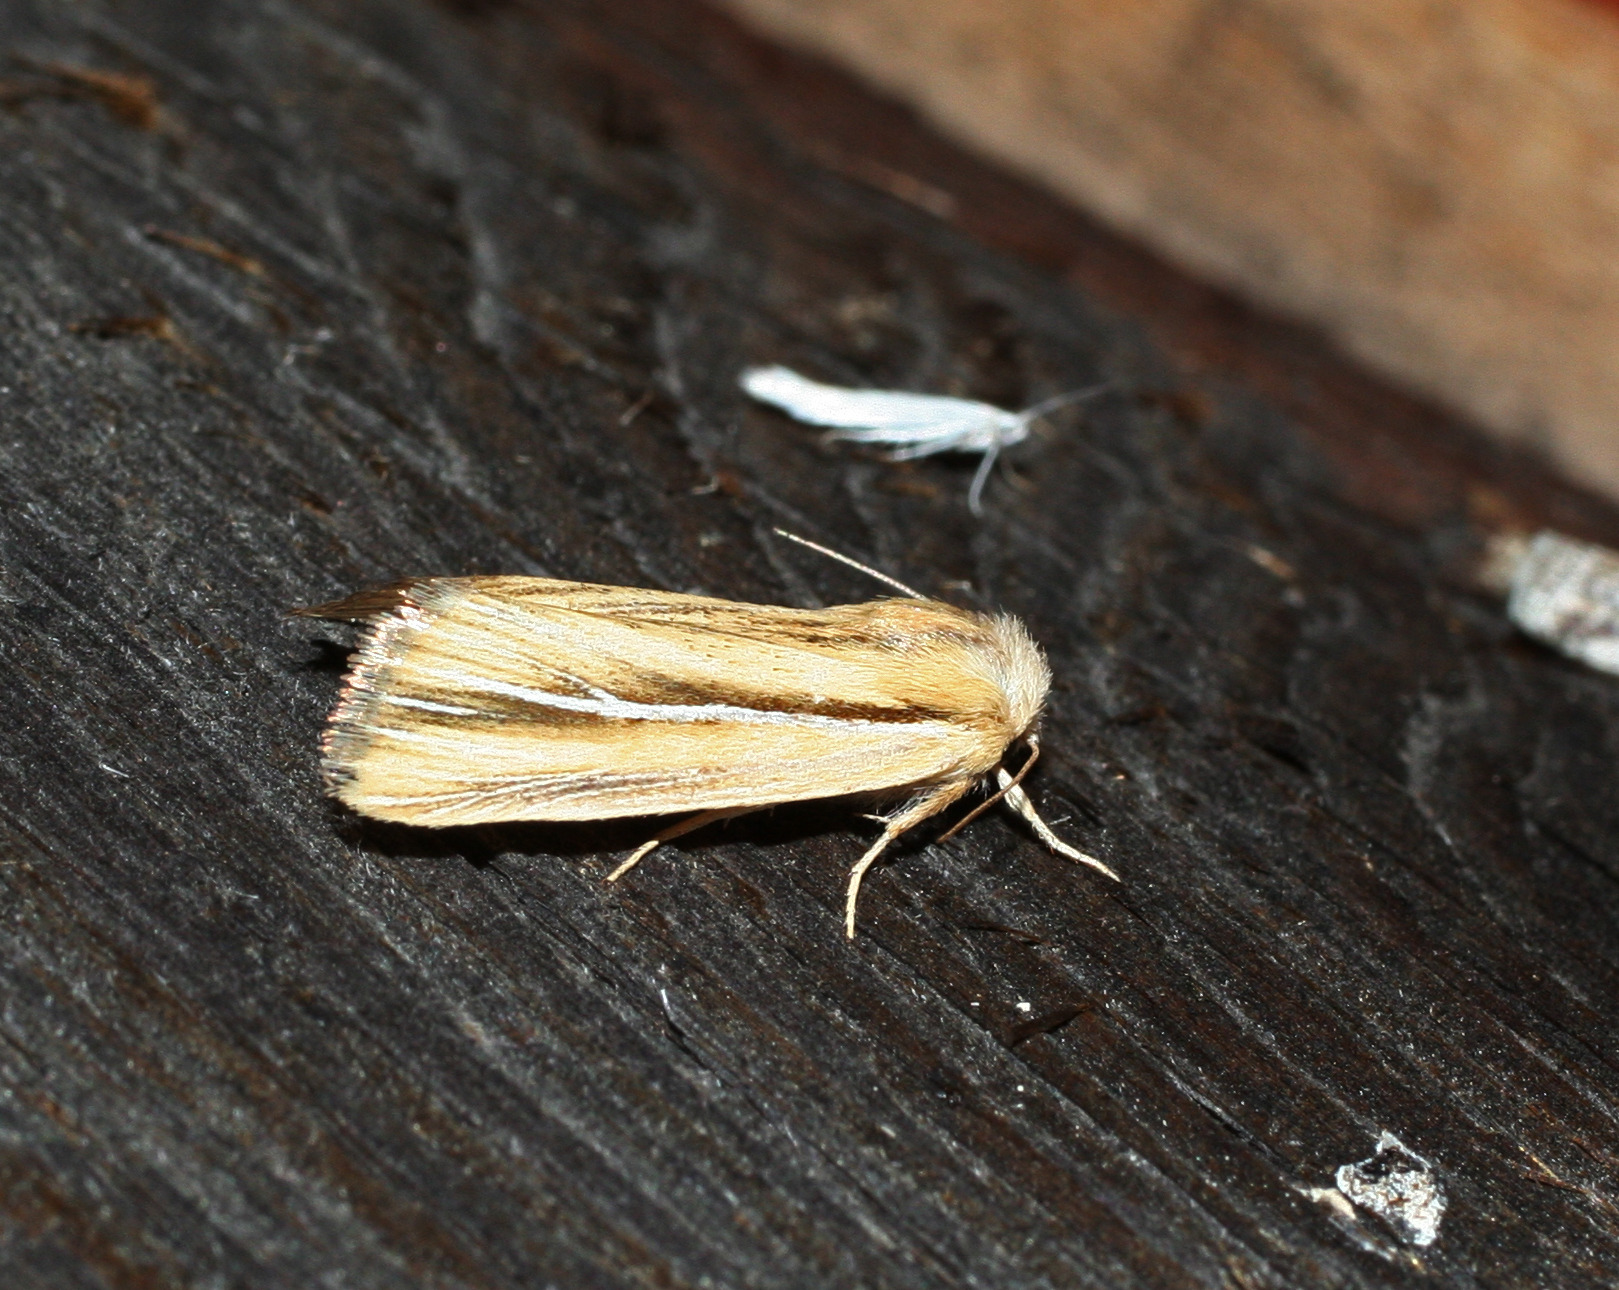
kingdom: Animalia
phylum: Arthropoda
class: Insecta
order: Lepidoptera
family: Noctuidae
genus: Mythimna
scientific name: Mythimna albiradiosa
